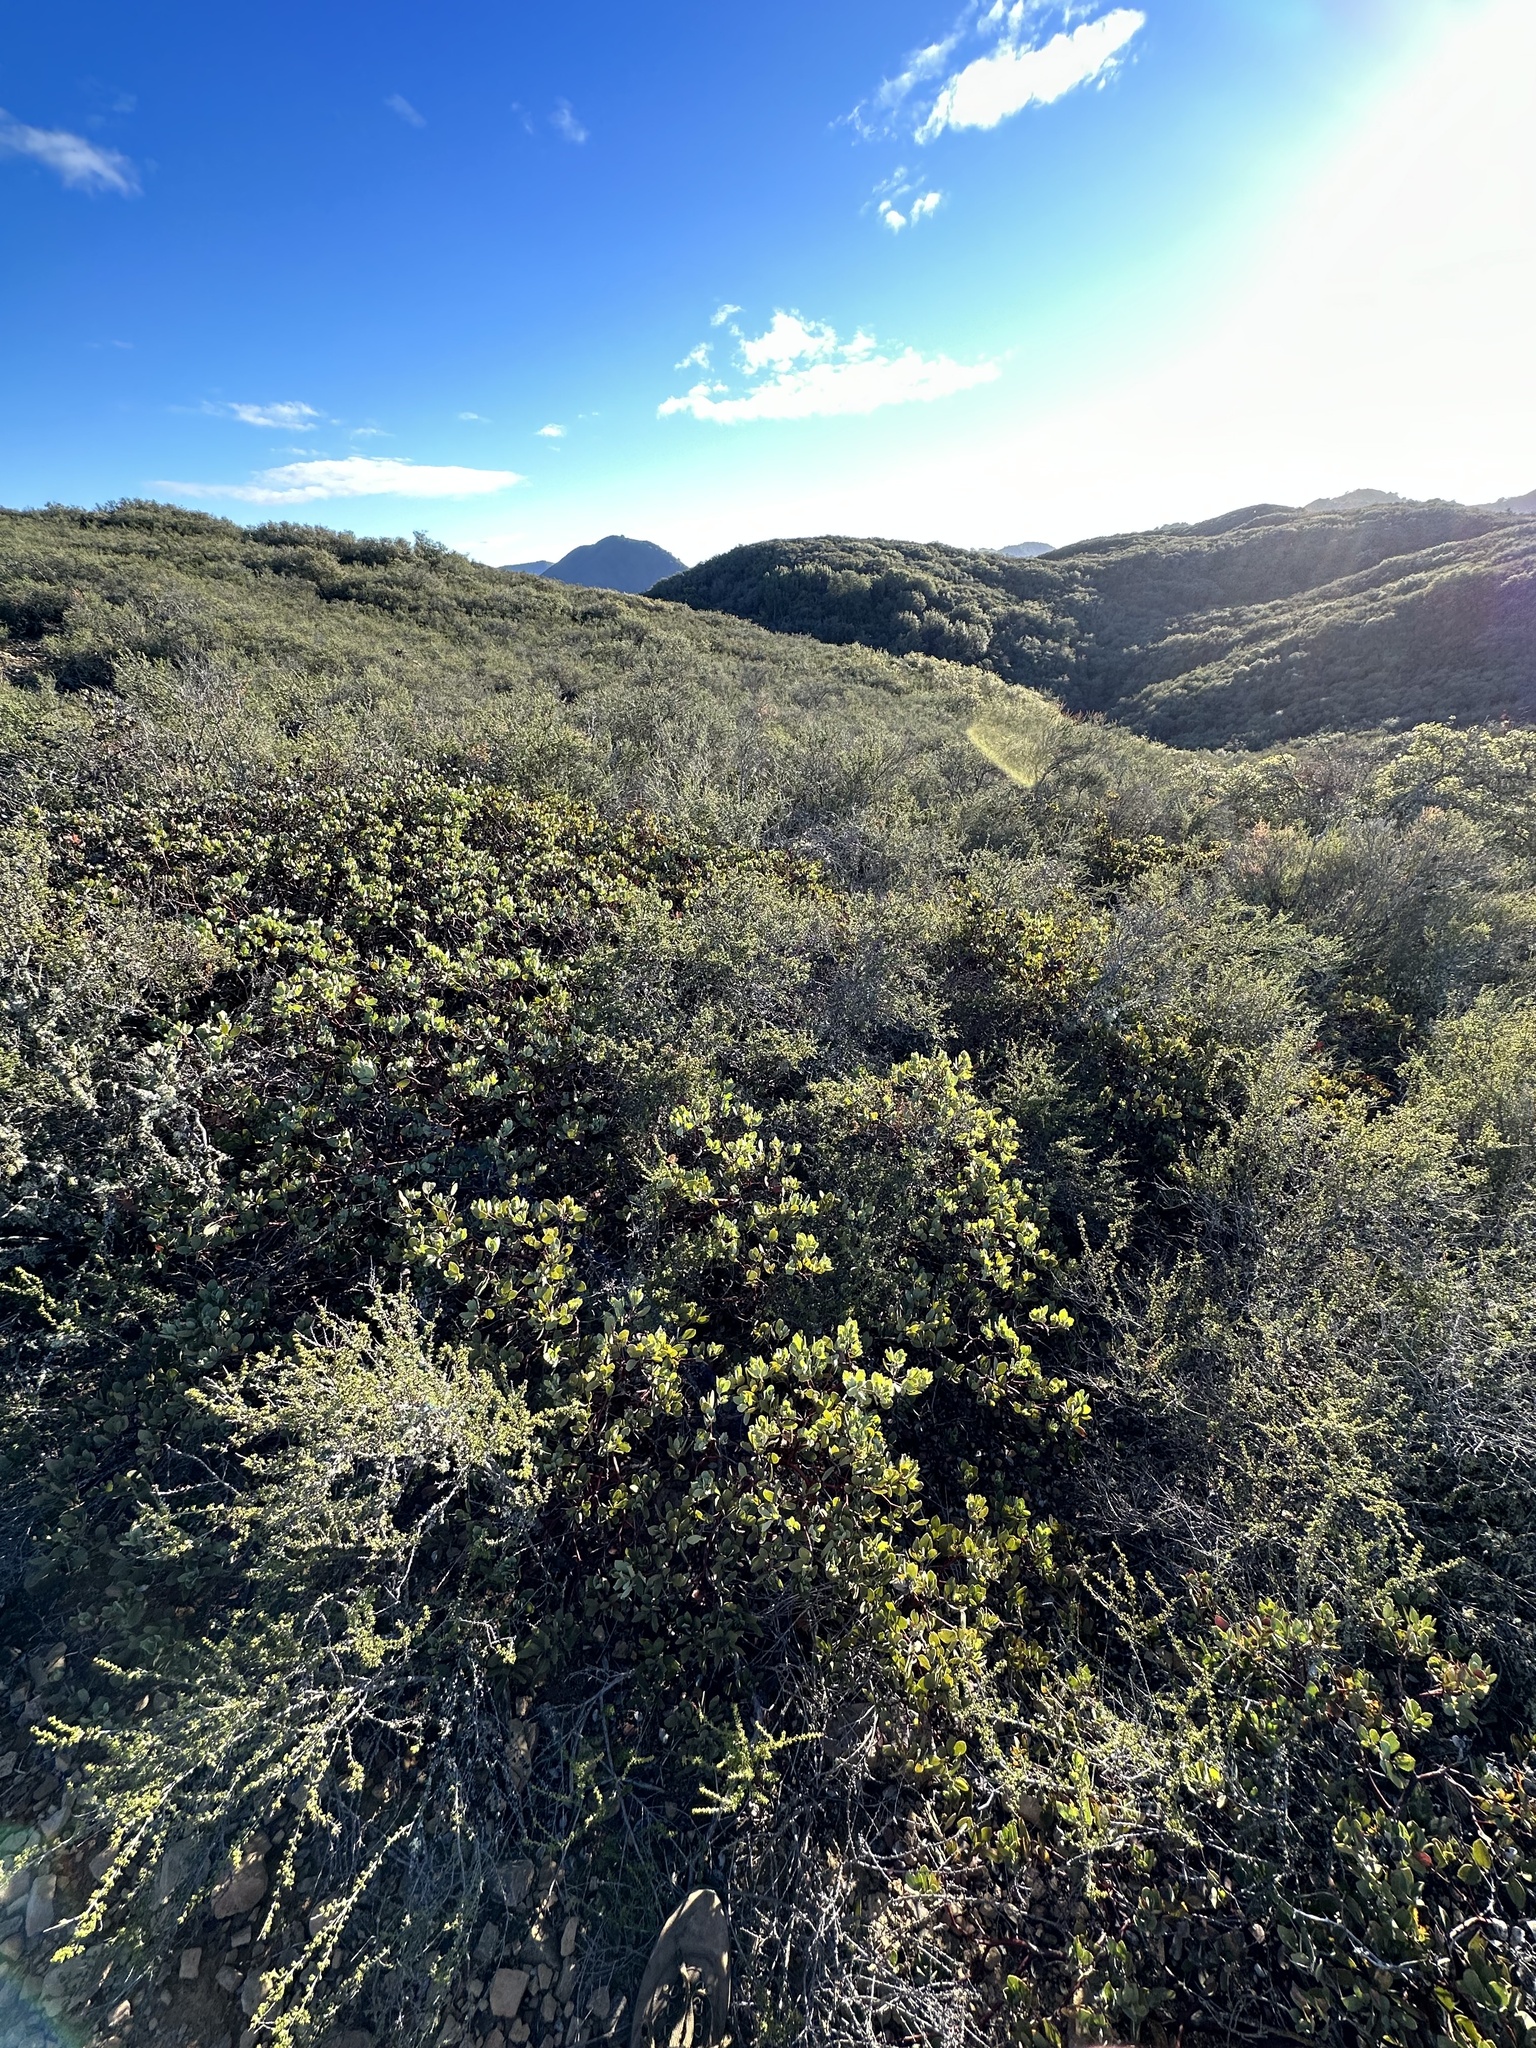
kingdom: Plantae
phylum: Tracheophyta
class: Magnoliopsida
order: Ericales
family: Ericaceae
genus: Arctostaphylos
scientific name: Arctostaphylos glandulosa
